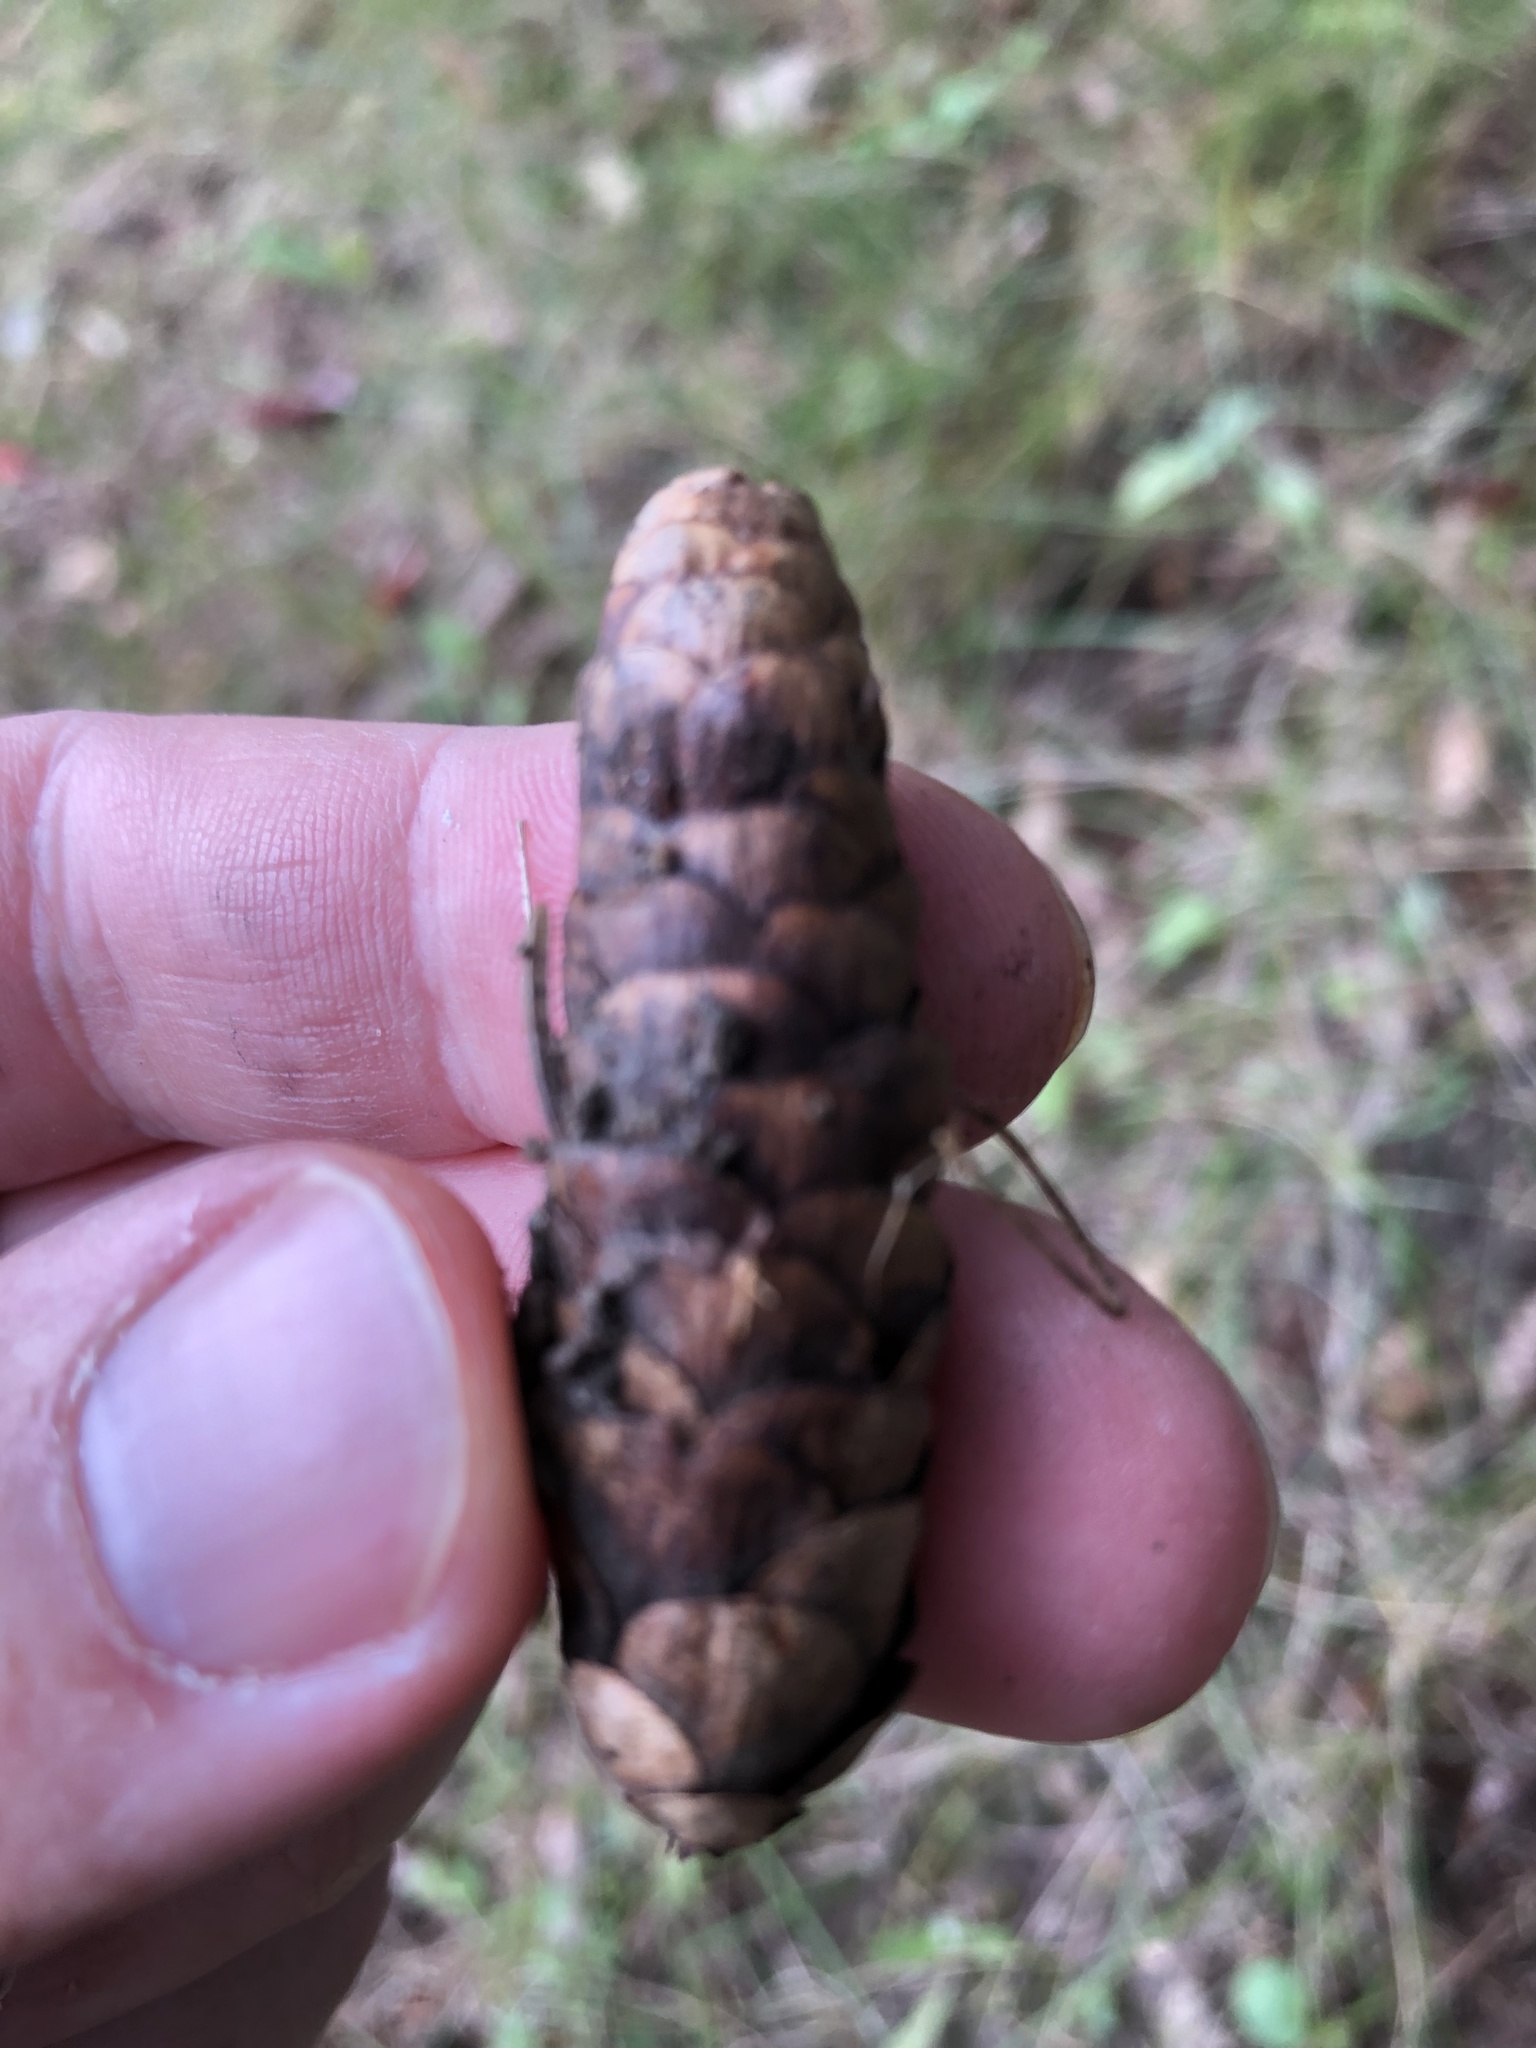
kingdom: Plantae
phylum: Tracheophyta
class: Pinopsida
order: Pinales
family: Pinaceae
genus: Picea
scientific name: Picea glauca
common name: White spruce
